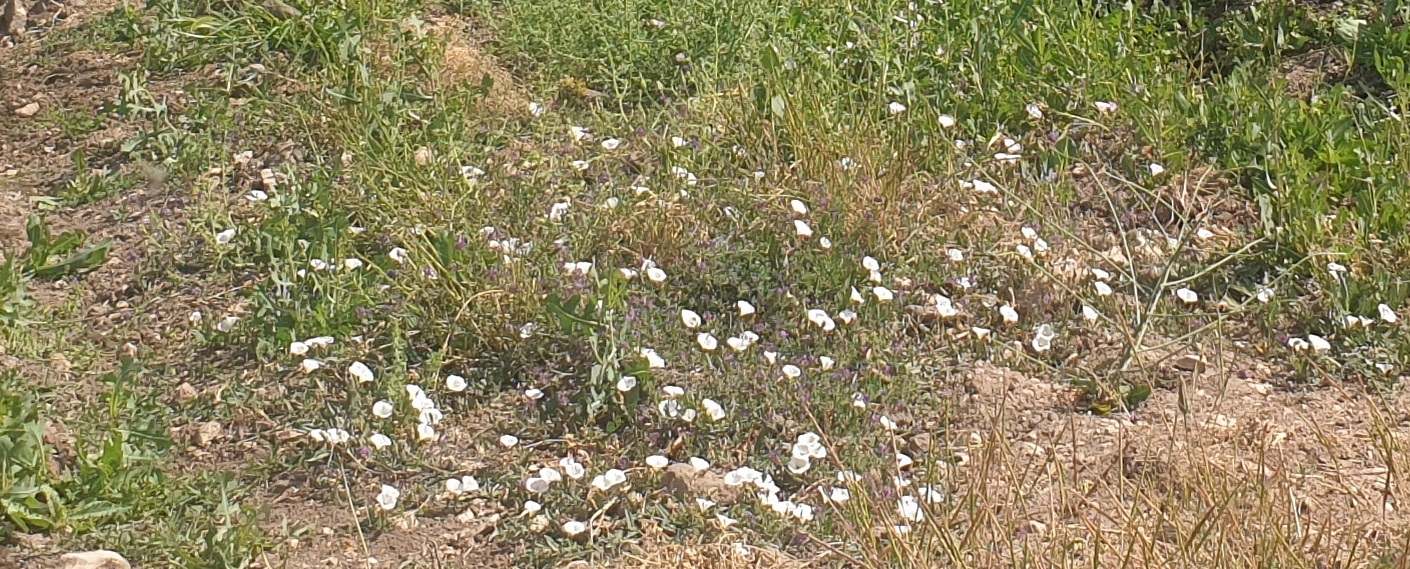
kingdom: Plantae
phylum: Tracheophyta
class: Magnoliopsida
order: Solanales
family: Convolvulaceae
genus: Convolvulus
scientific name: Convolvulus arvensis
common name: Field bindweed
